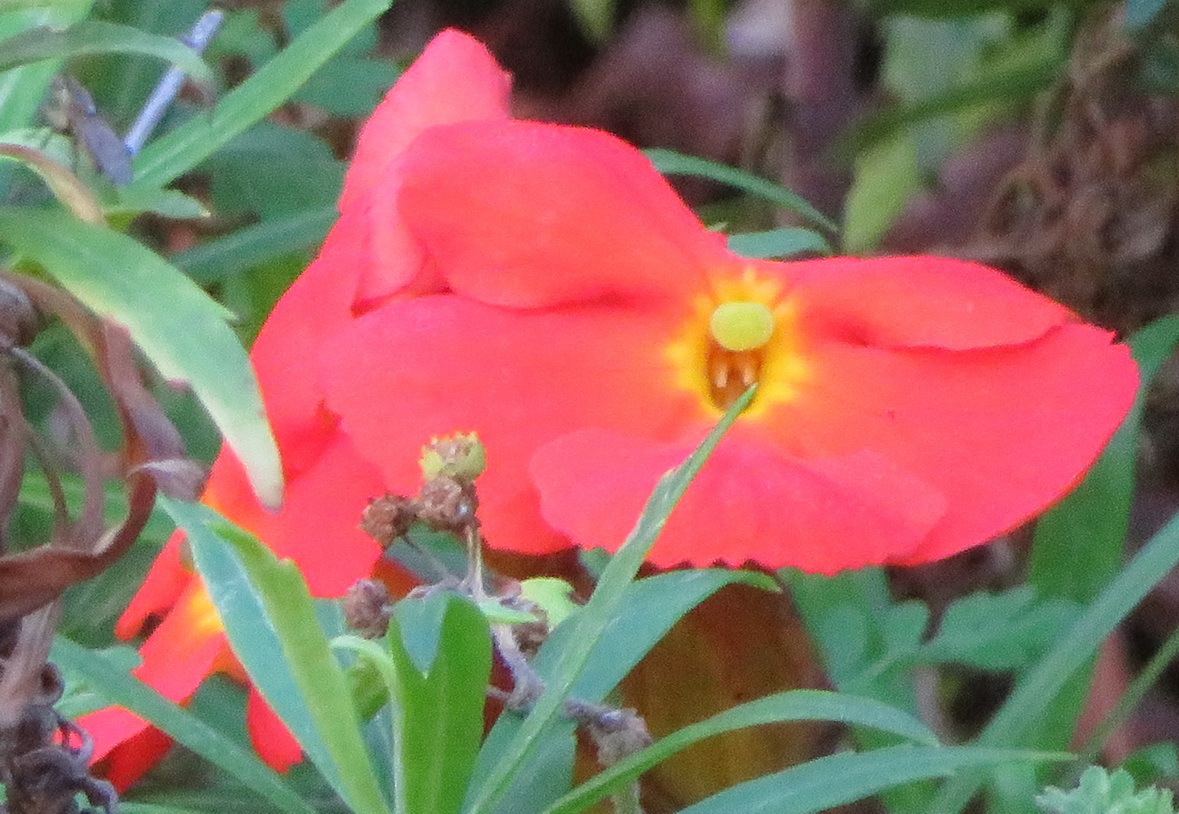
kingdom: Plantae
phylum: Tracheophyta
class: Magnoliopsida
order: Lamiales
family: Orobanchaceae
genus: Harveya
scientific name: Harveya stenosiphon
